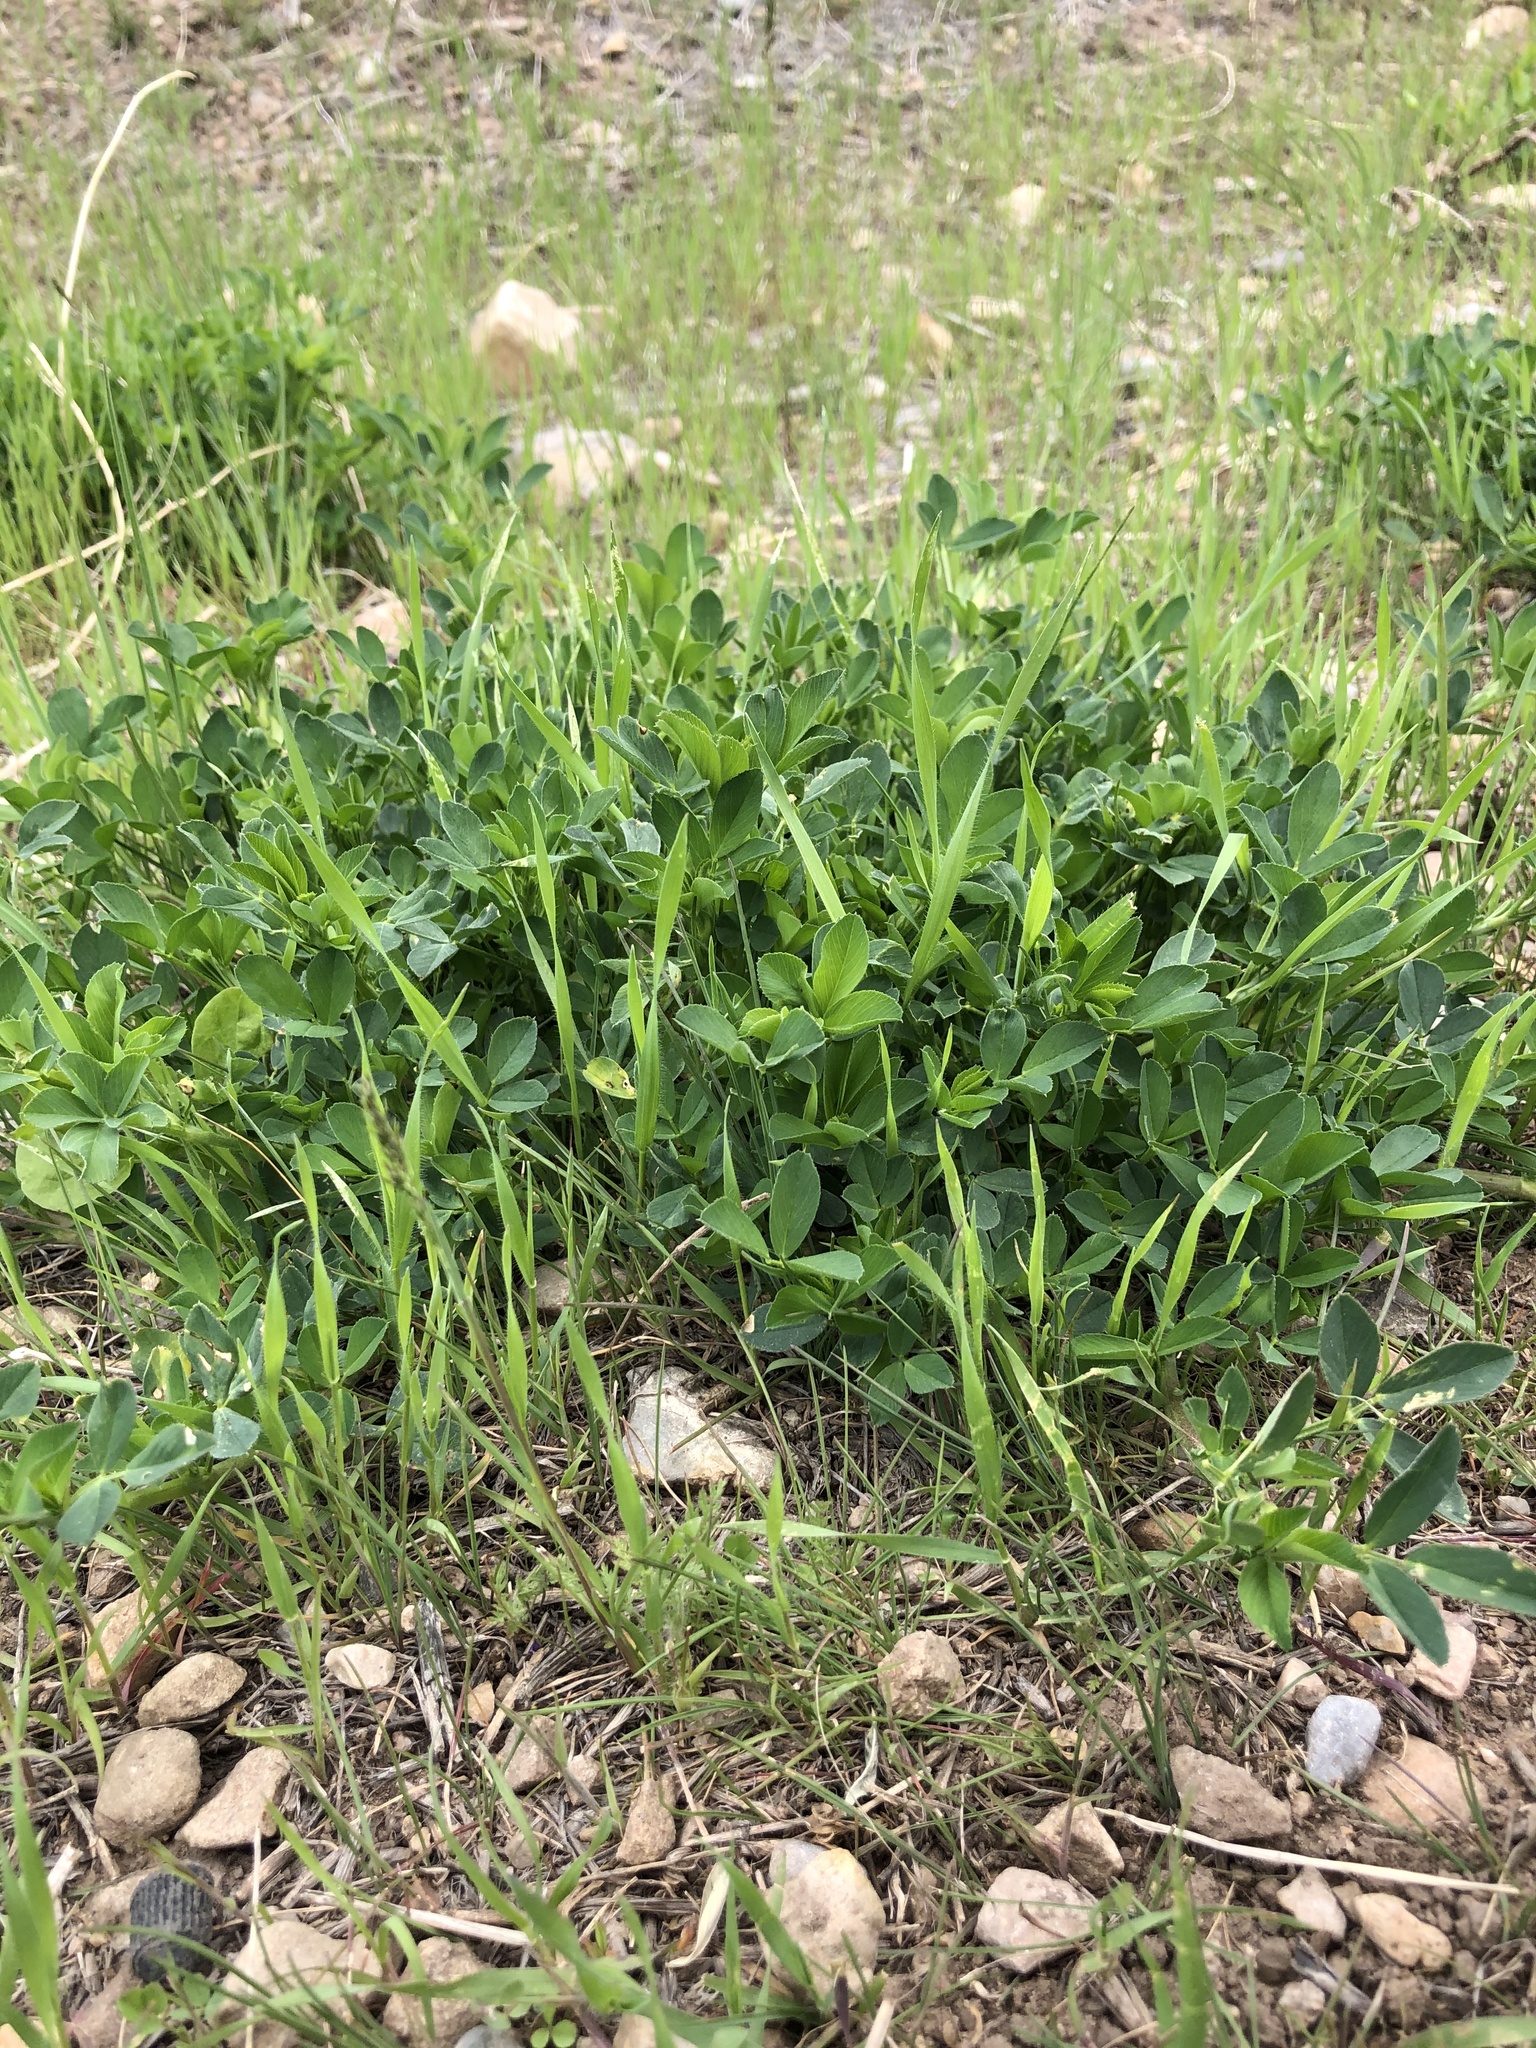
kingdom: Plantae
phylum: Tracheophyta
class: Magnoliopsida
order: Fabales
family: Fabaceae
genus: Medicago
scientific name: Medicago sativa
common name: Alfalfa
